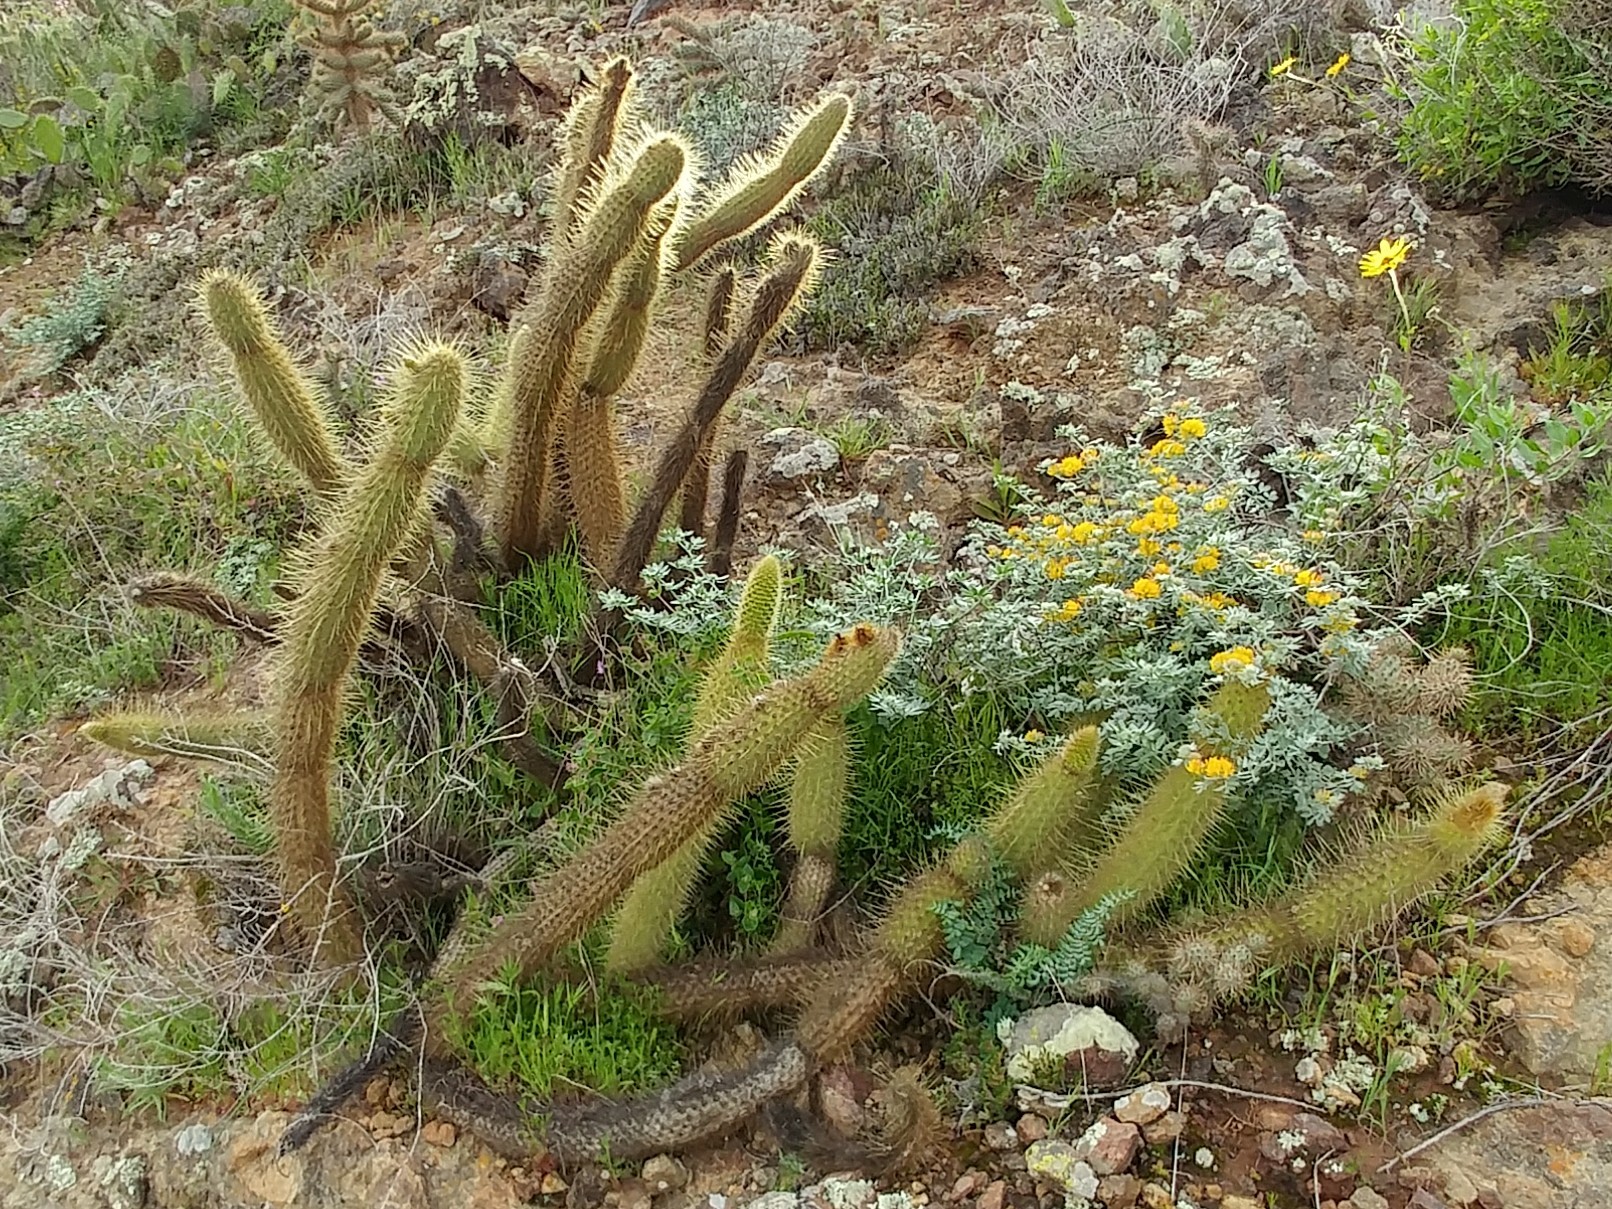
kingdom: Plantae
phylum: Tracheophyta
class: Magnoliopsida
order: Caryophyllales
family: Cactaceae
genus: Bergerocactus
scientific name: Bergerocactus emoryi
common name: Golden snakecactus
